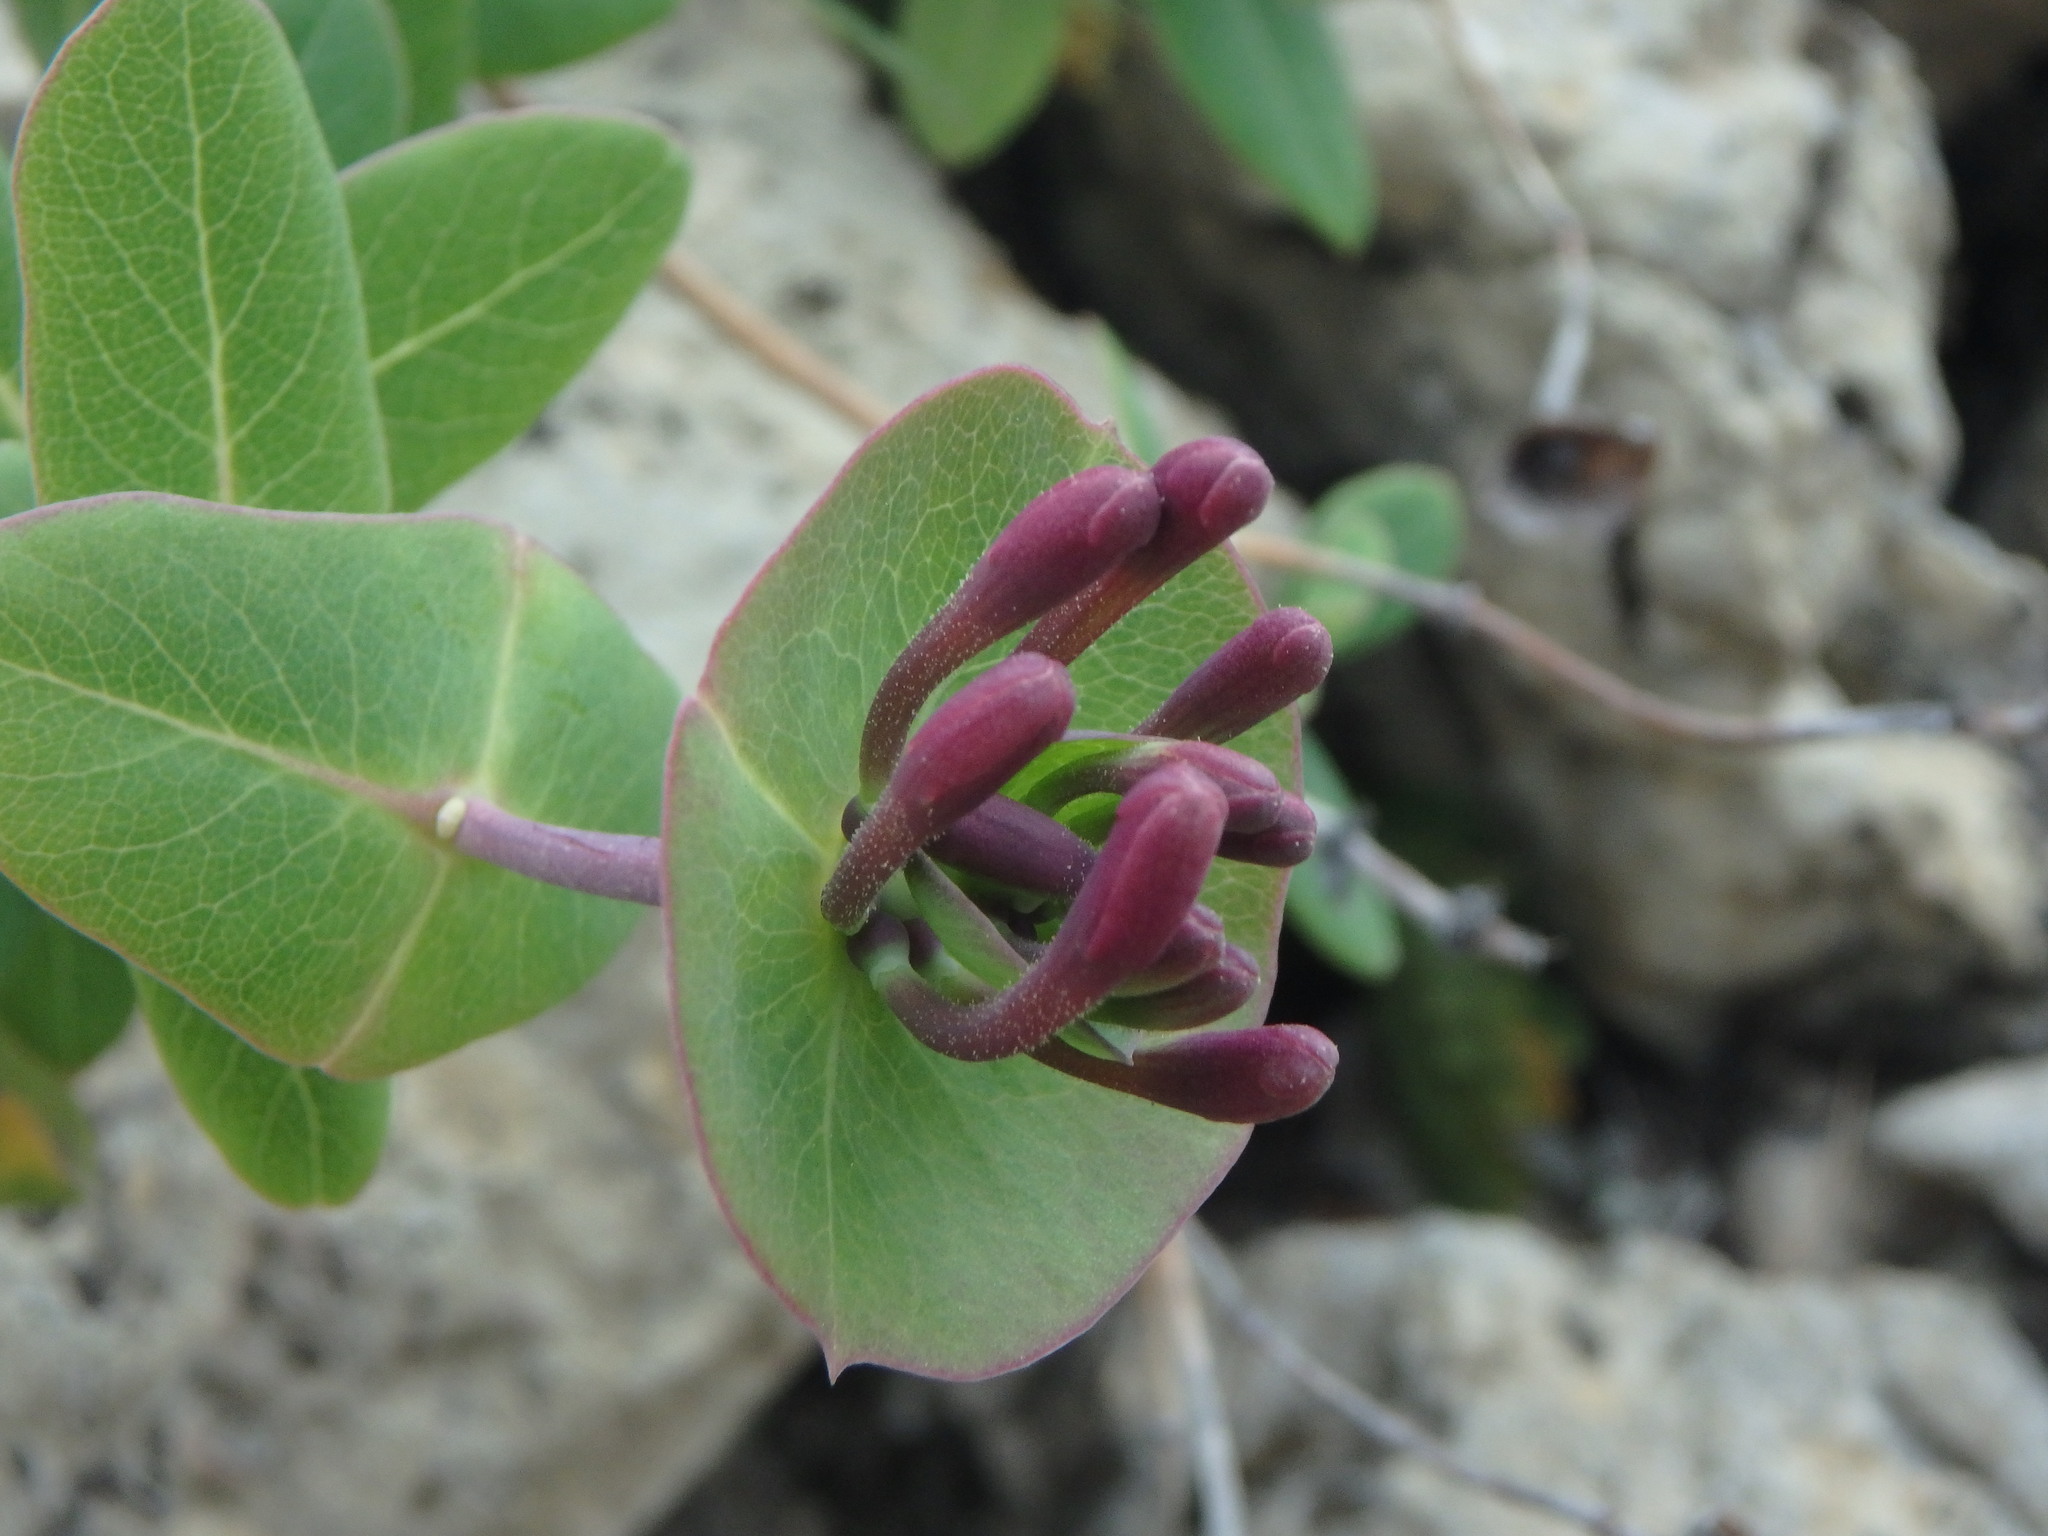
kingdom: Plantae
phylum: Tracheophyta
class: Magnoliopsida
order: Dipsacales
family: Caprifoliaceae
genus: Lonicera
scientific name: Lonicera implexa
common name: Minorca honeysuckle
